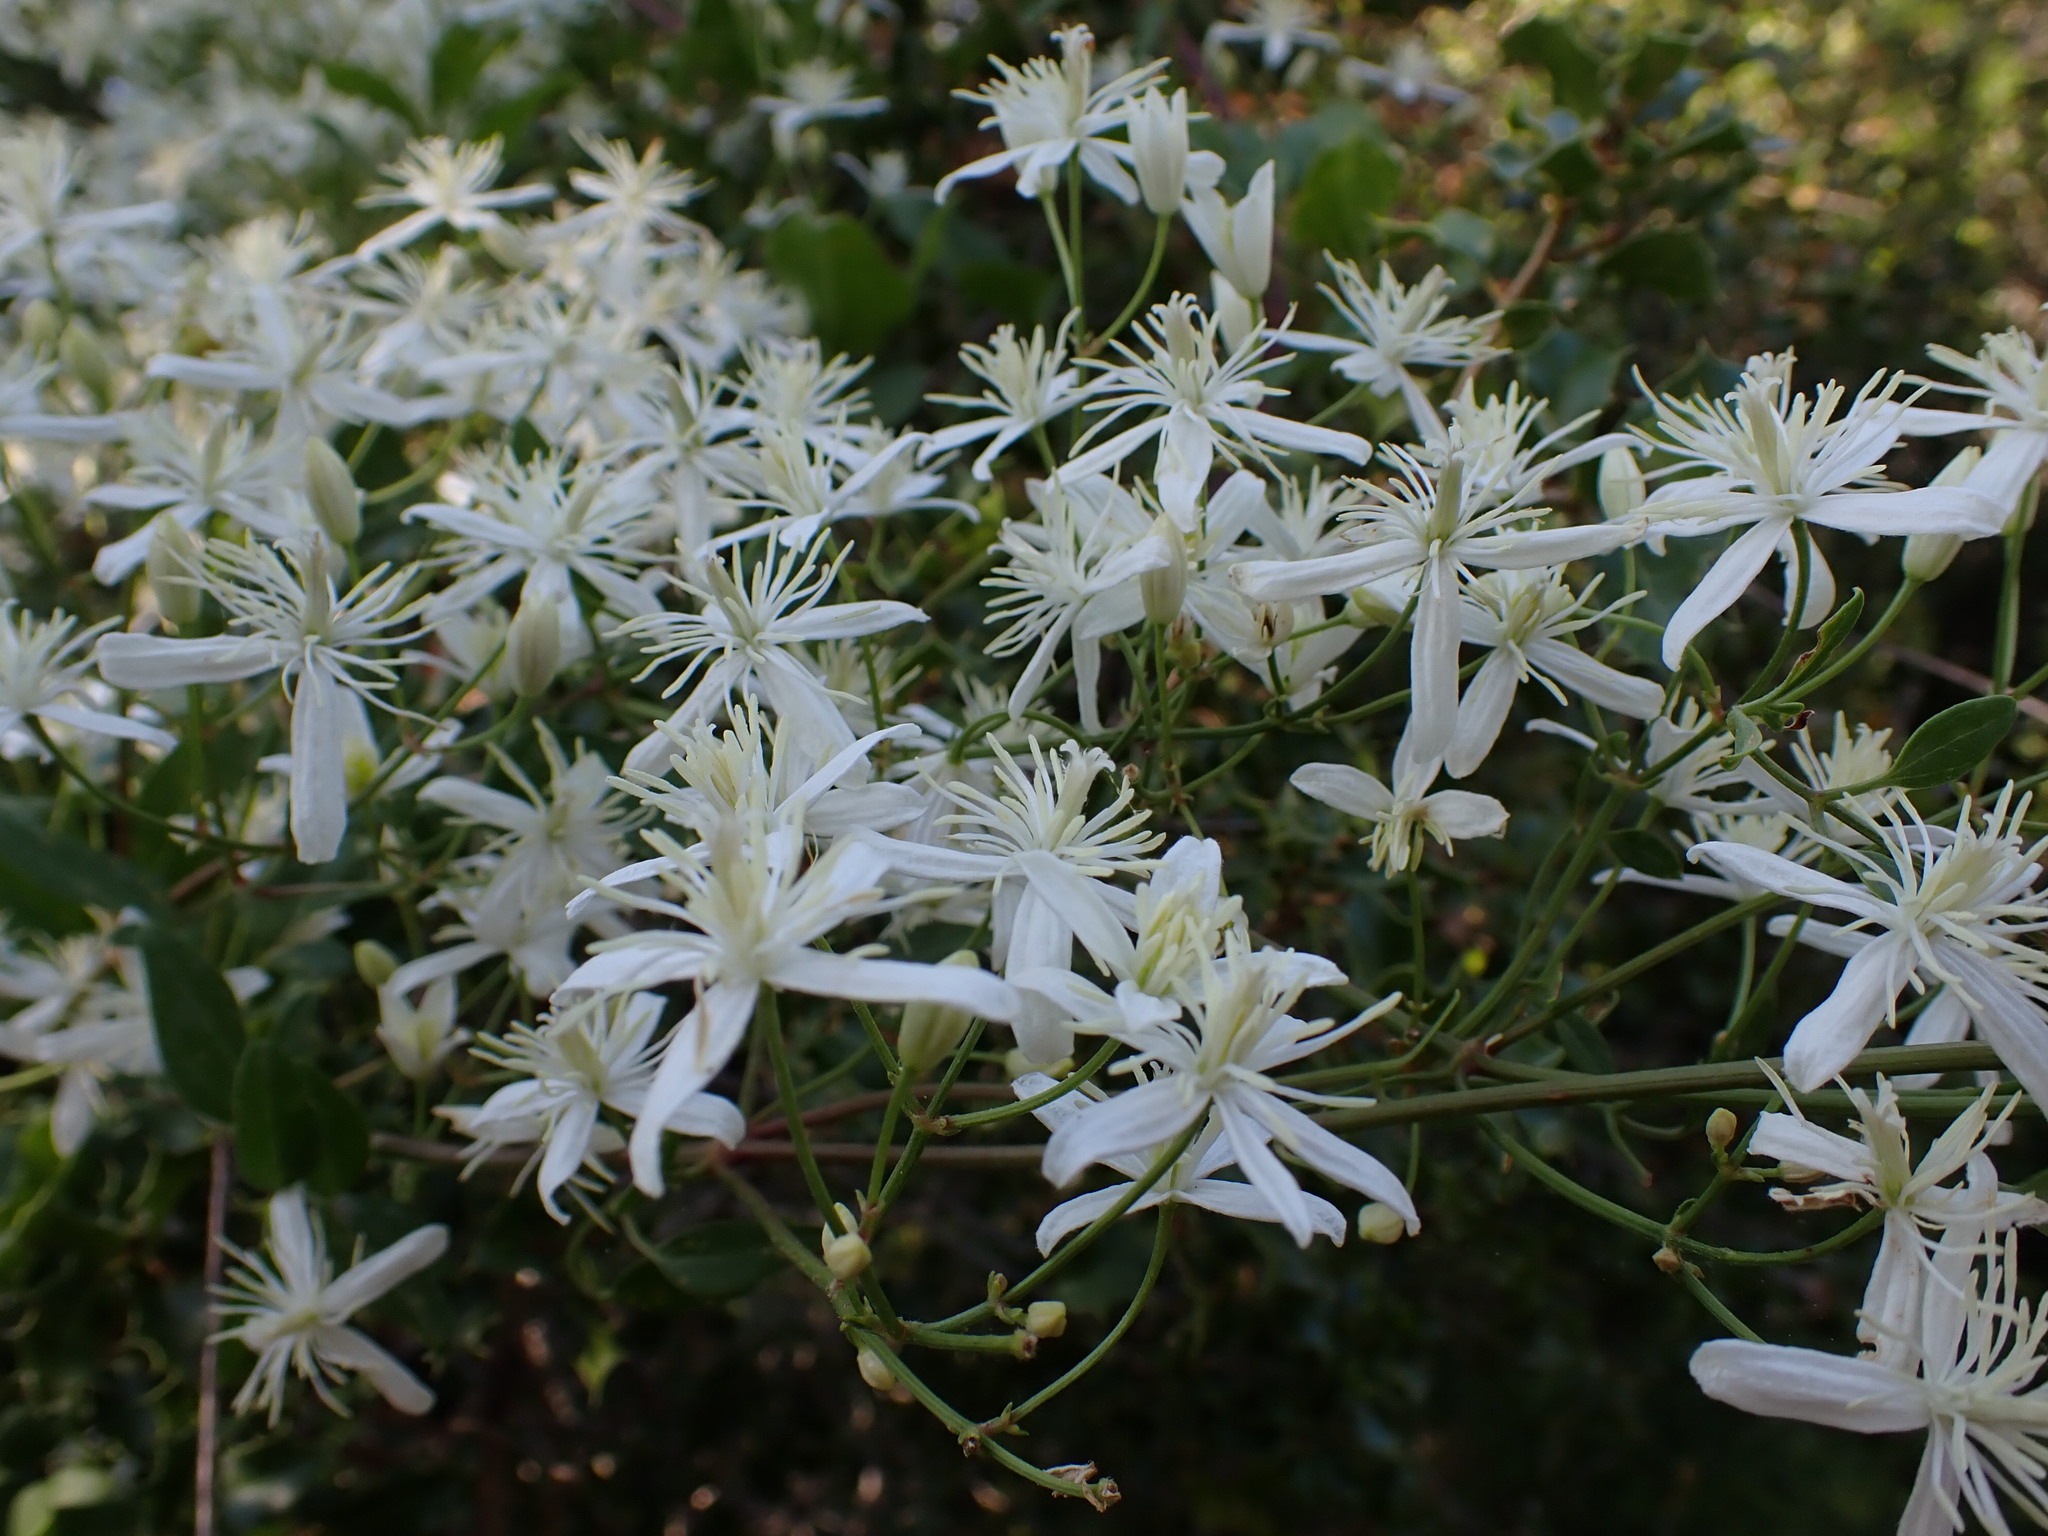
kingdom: Plantae
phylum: Tracheophyta
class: Magnoliopsida
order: Ranunculales
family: Ranunculaceae
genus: Clematis
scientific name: Clematis flammula
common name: Virgin's-bower
